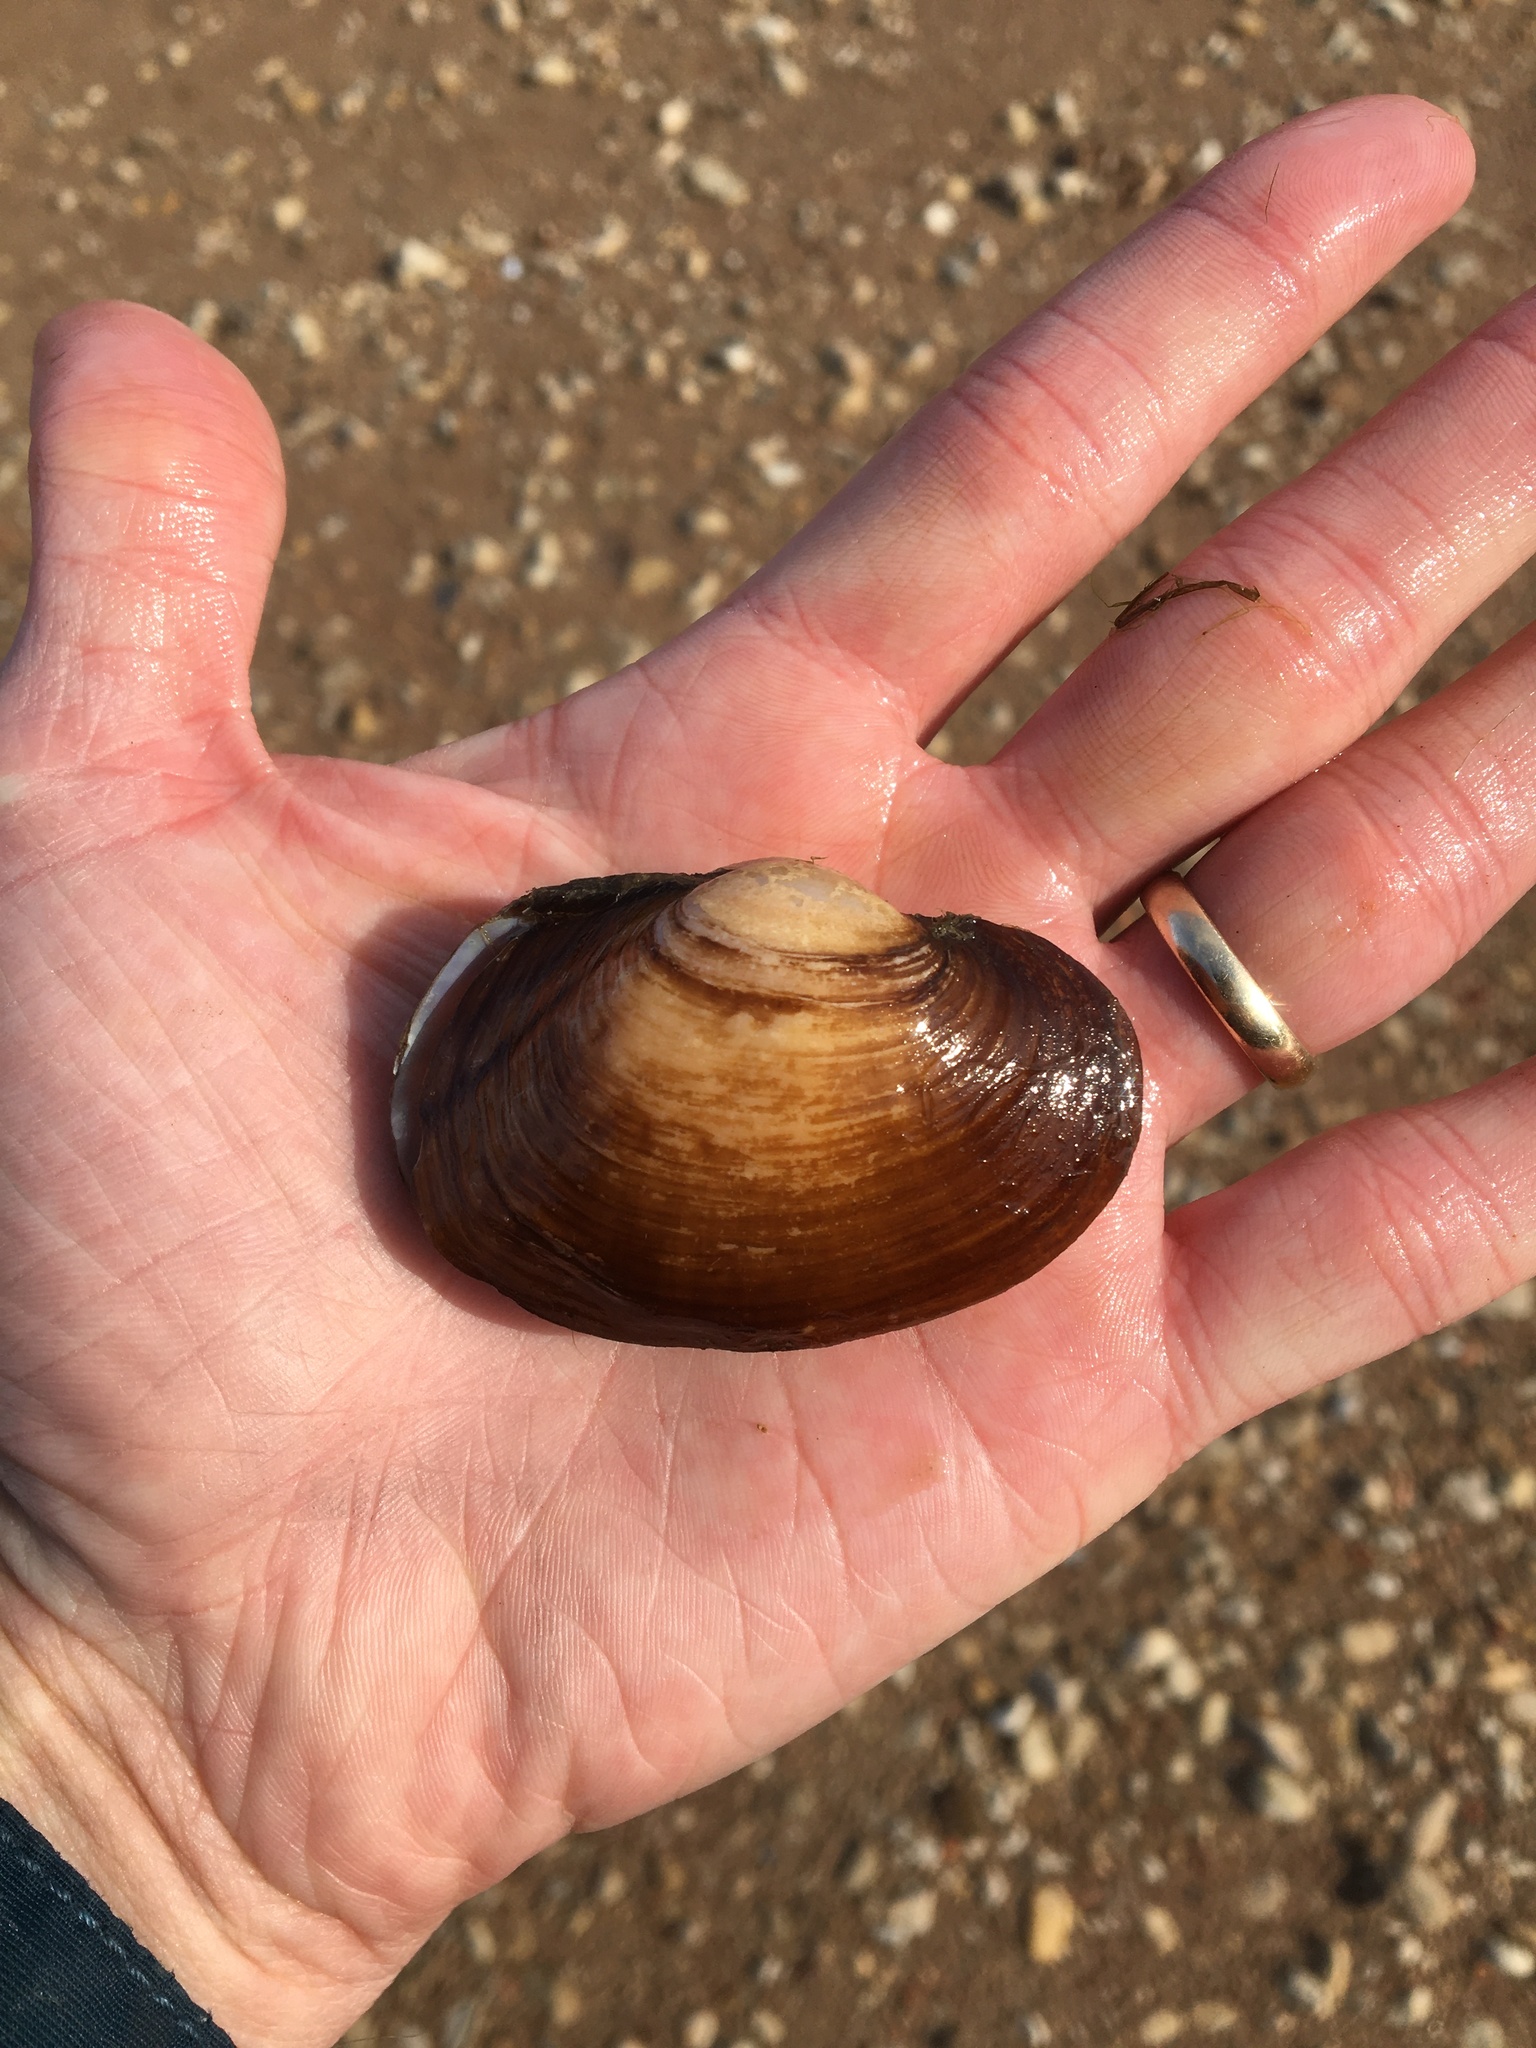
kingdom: Animalia
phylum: Mollusca
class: Bivalvia
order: Unionida
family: Unionidae
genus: Cyrtonaias
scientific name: Cyrtonaias tampicoensis
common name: Tampico pearlymussel
